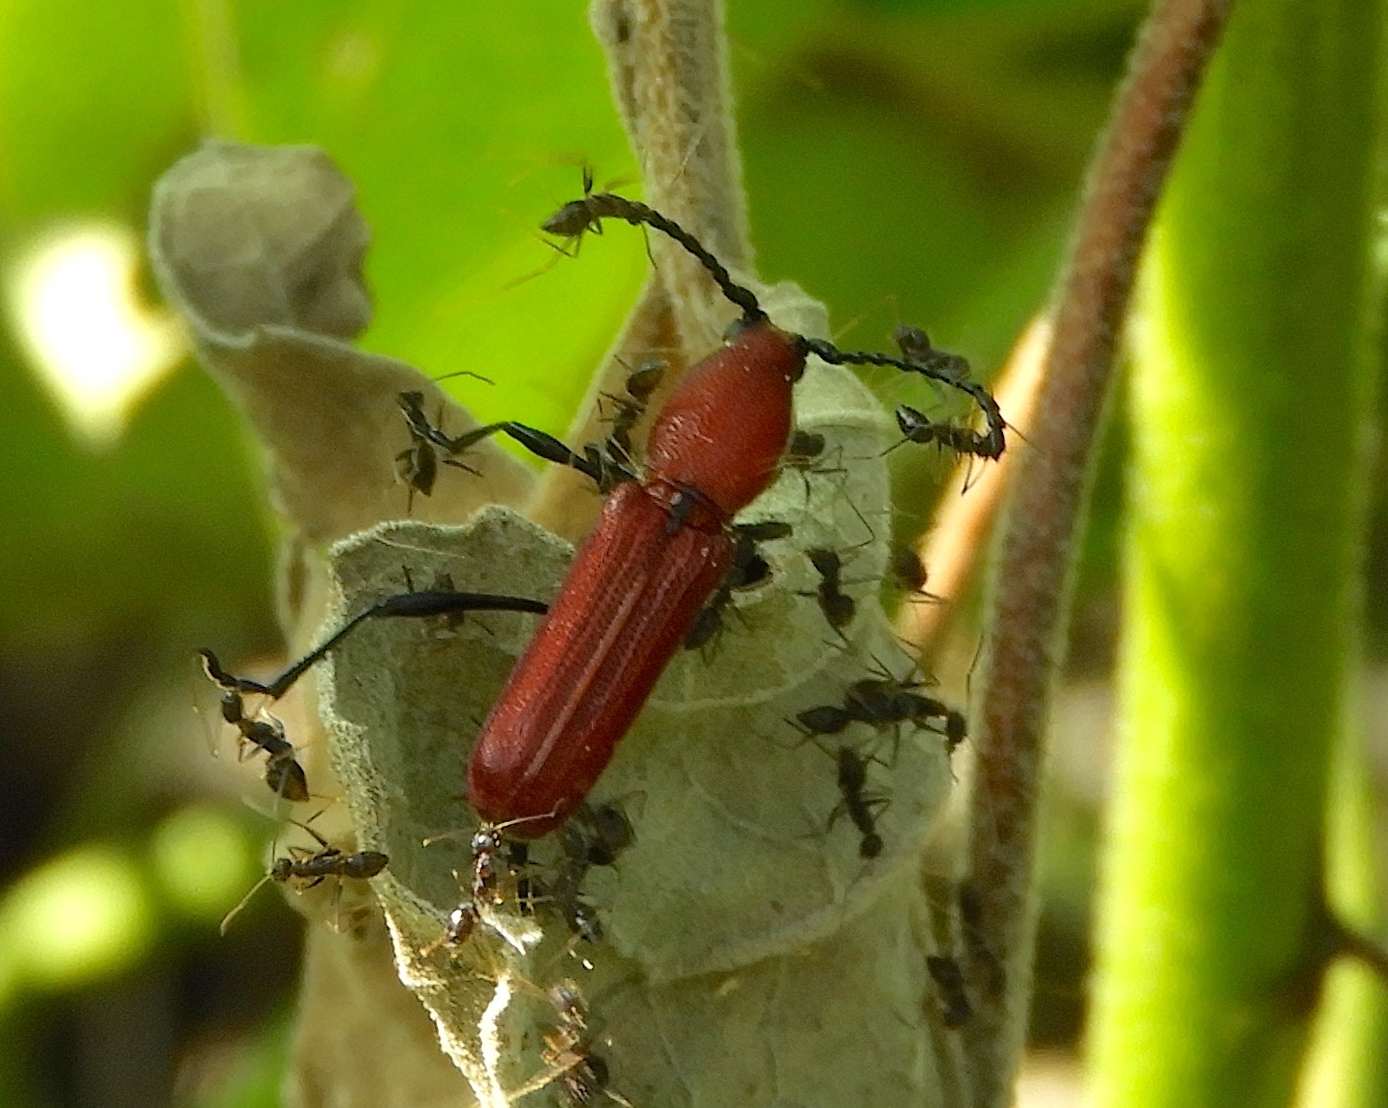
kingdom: Animalia
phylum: Arthropoda
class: Insecta
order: Coleoptera
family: Cerambycidae
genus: Assycuera
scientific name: Assycuera rubella
